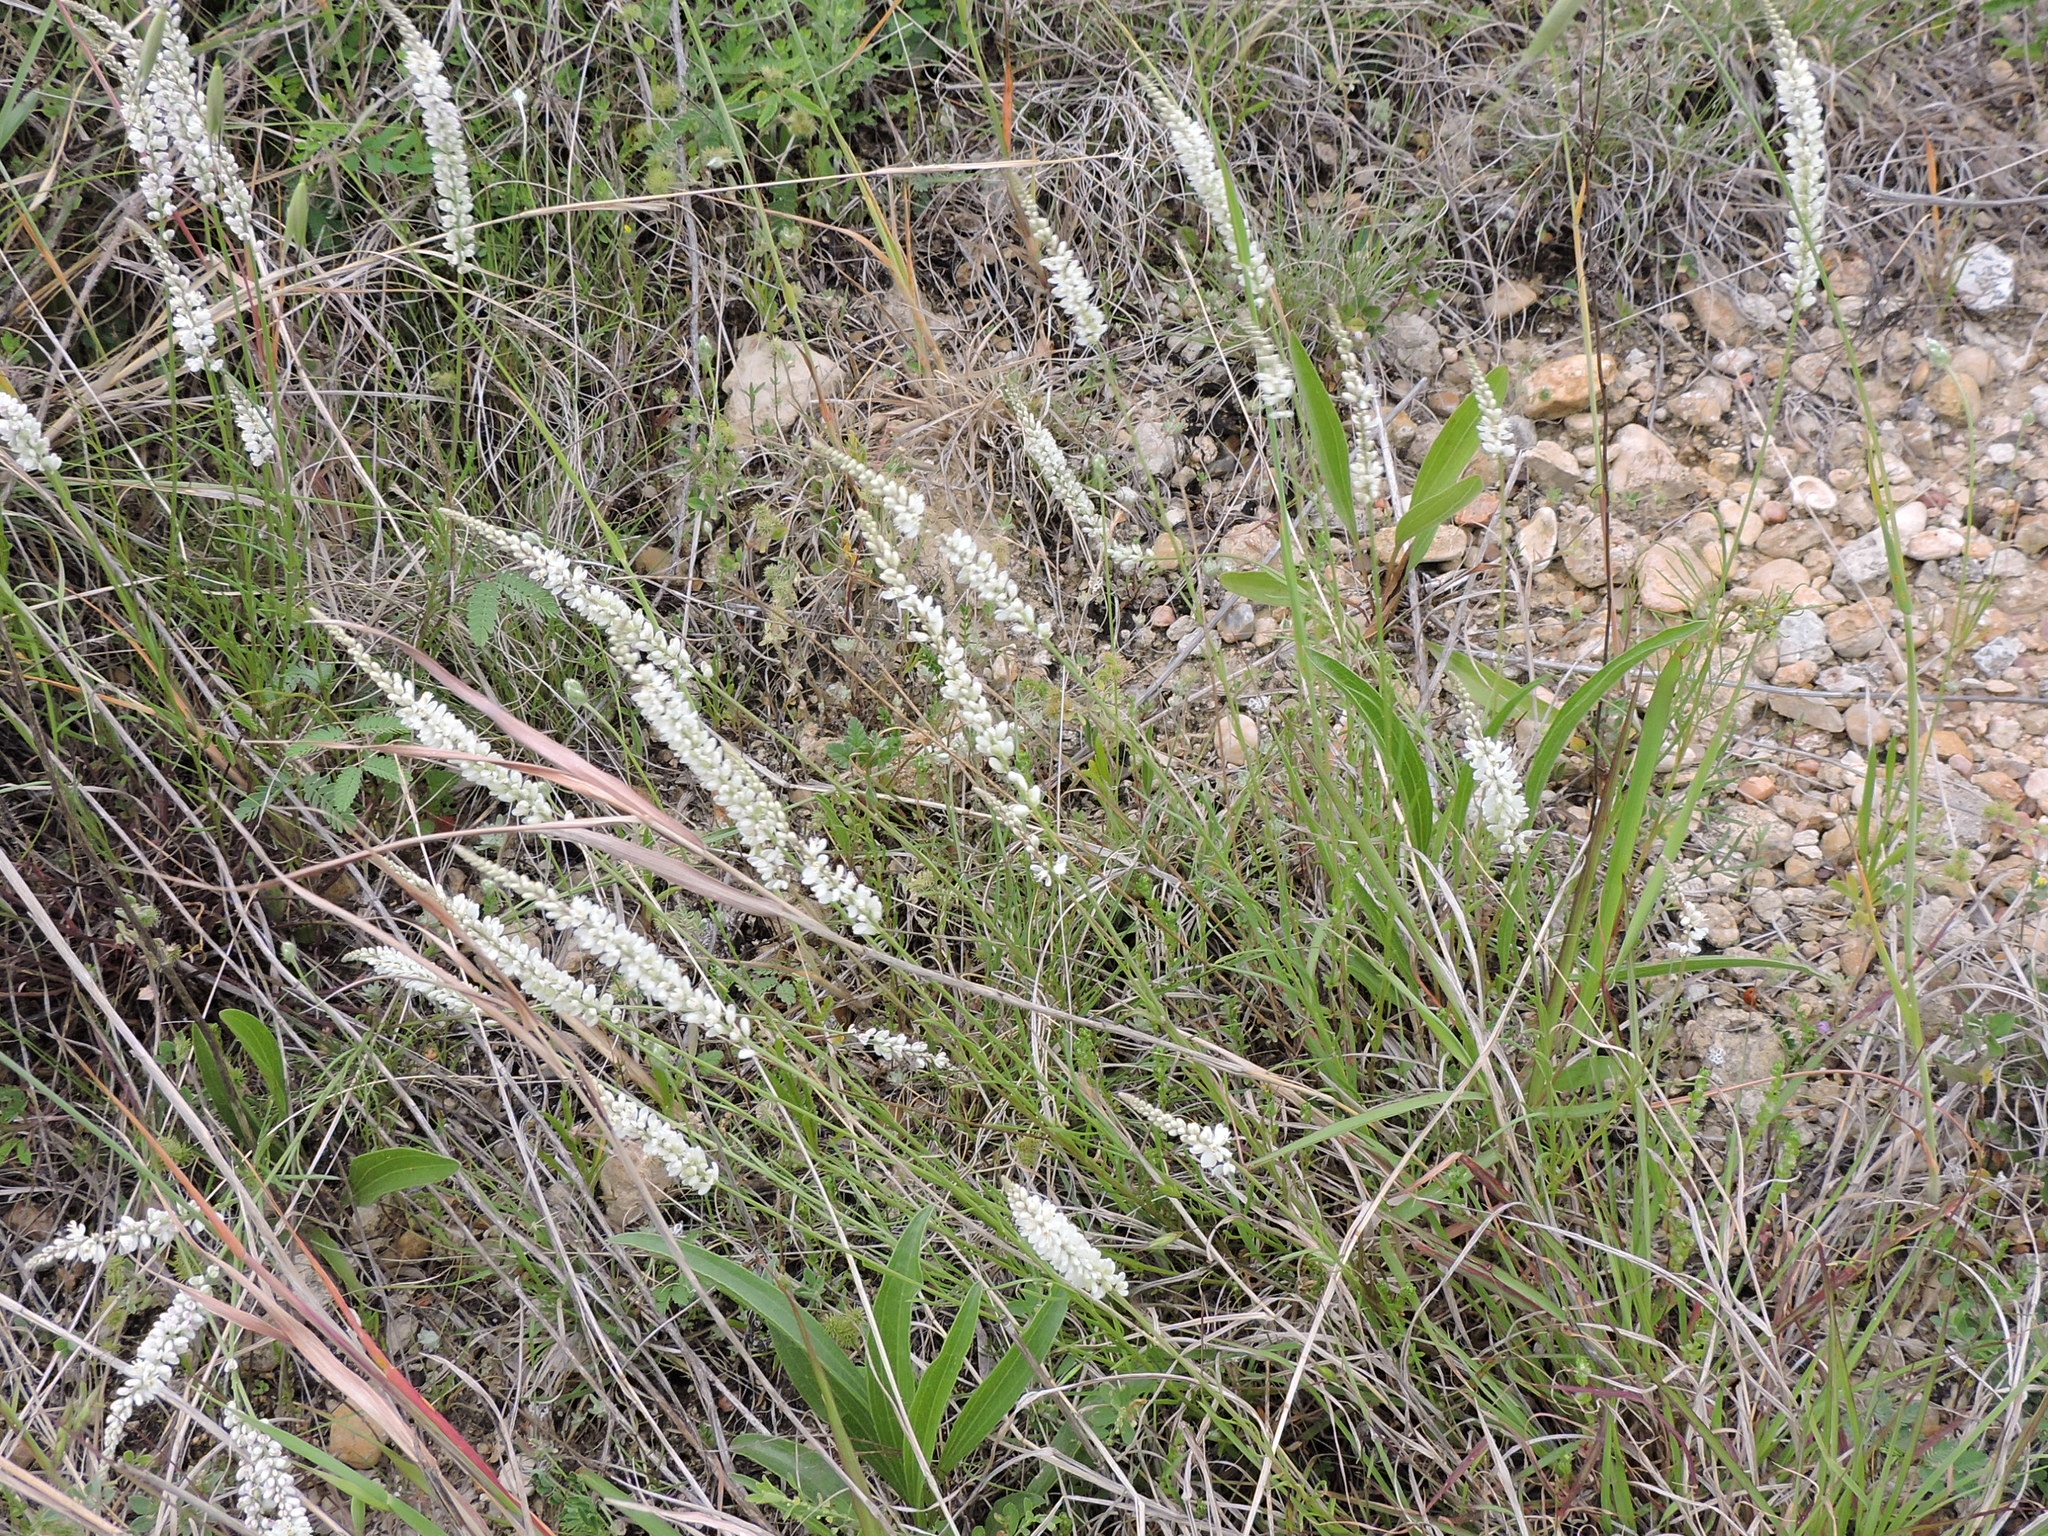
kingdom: Plantae
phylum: Tracheophyta
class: Magnoliopsida
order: Fabales
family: Polygalaceae
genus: Polygala
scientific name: Polygala alba
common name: White milkwort
